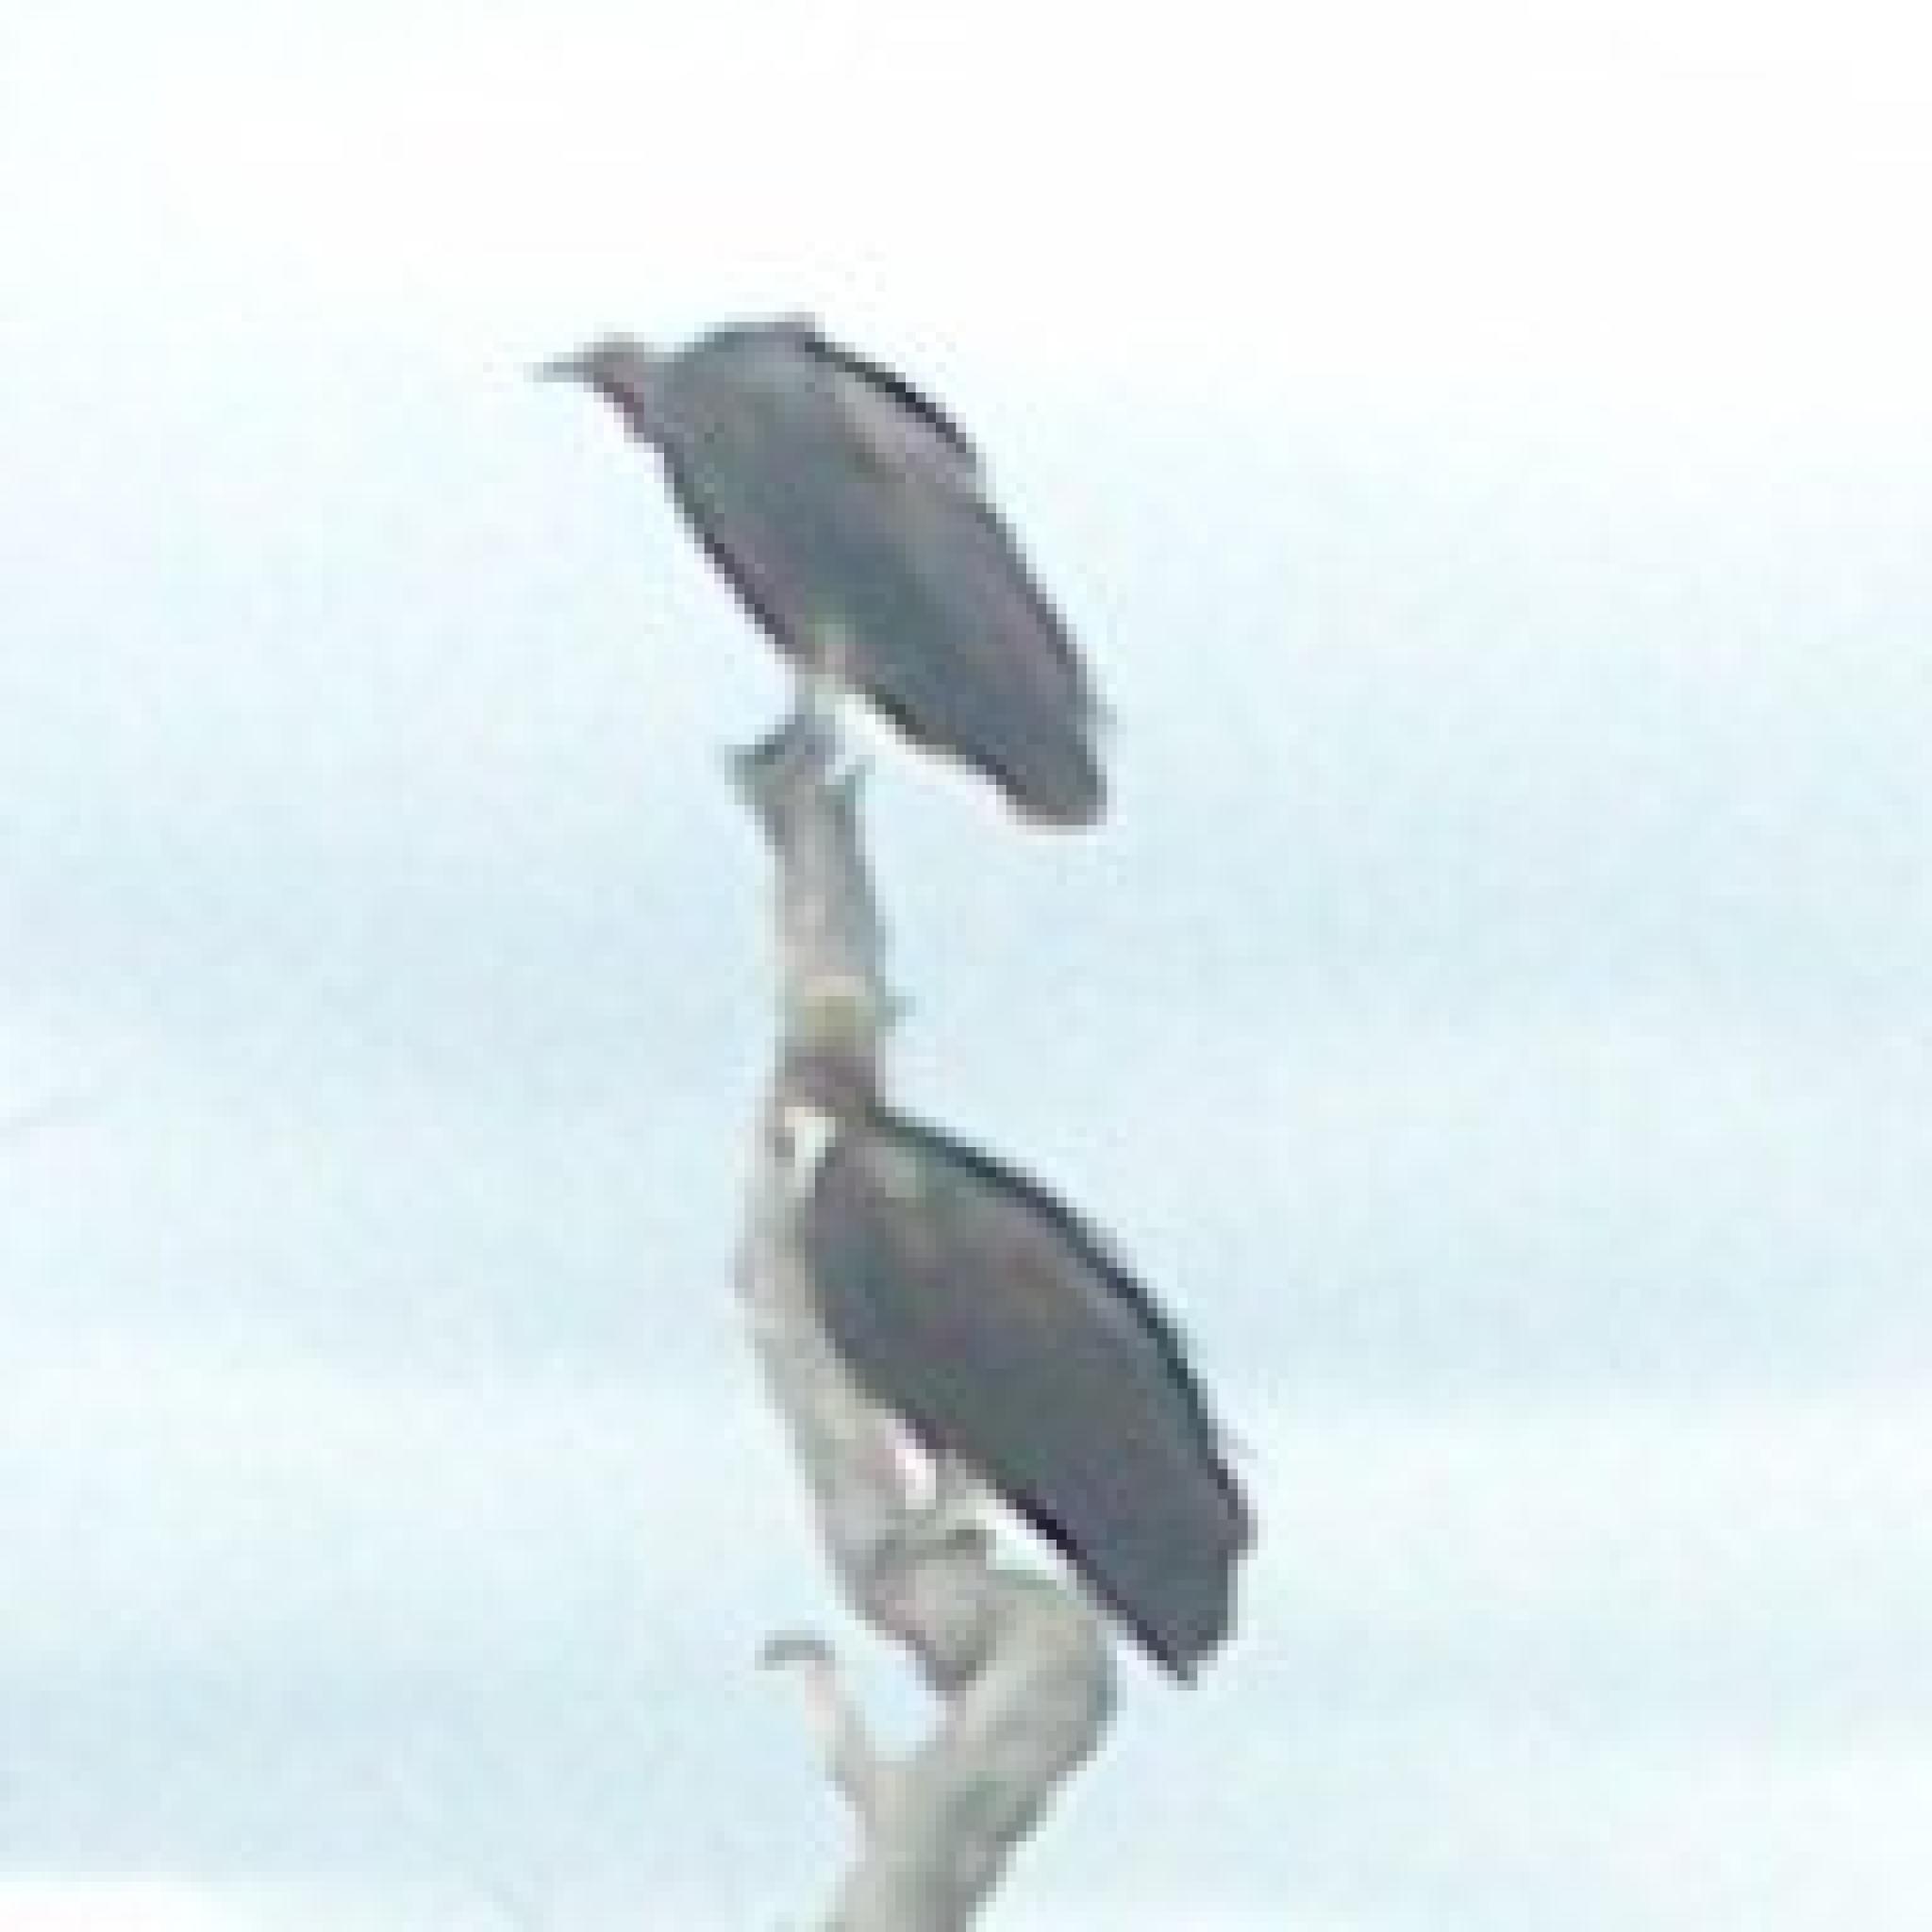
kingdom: Animalia
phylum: Chordata
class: Aves
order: Accipitriformes
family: Accipitridae
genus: Necrosyrtes
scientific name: Necrosyrtes monachus
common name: Hooded vulture
